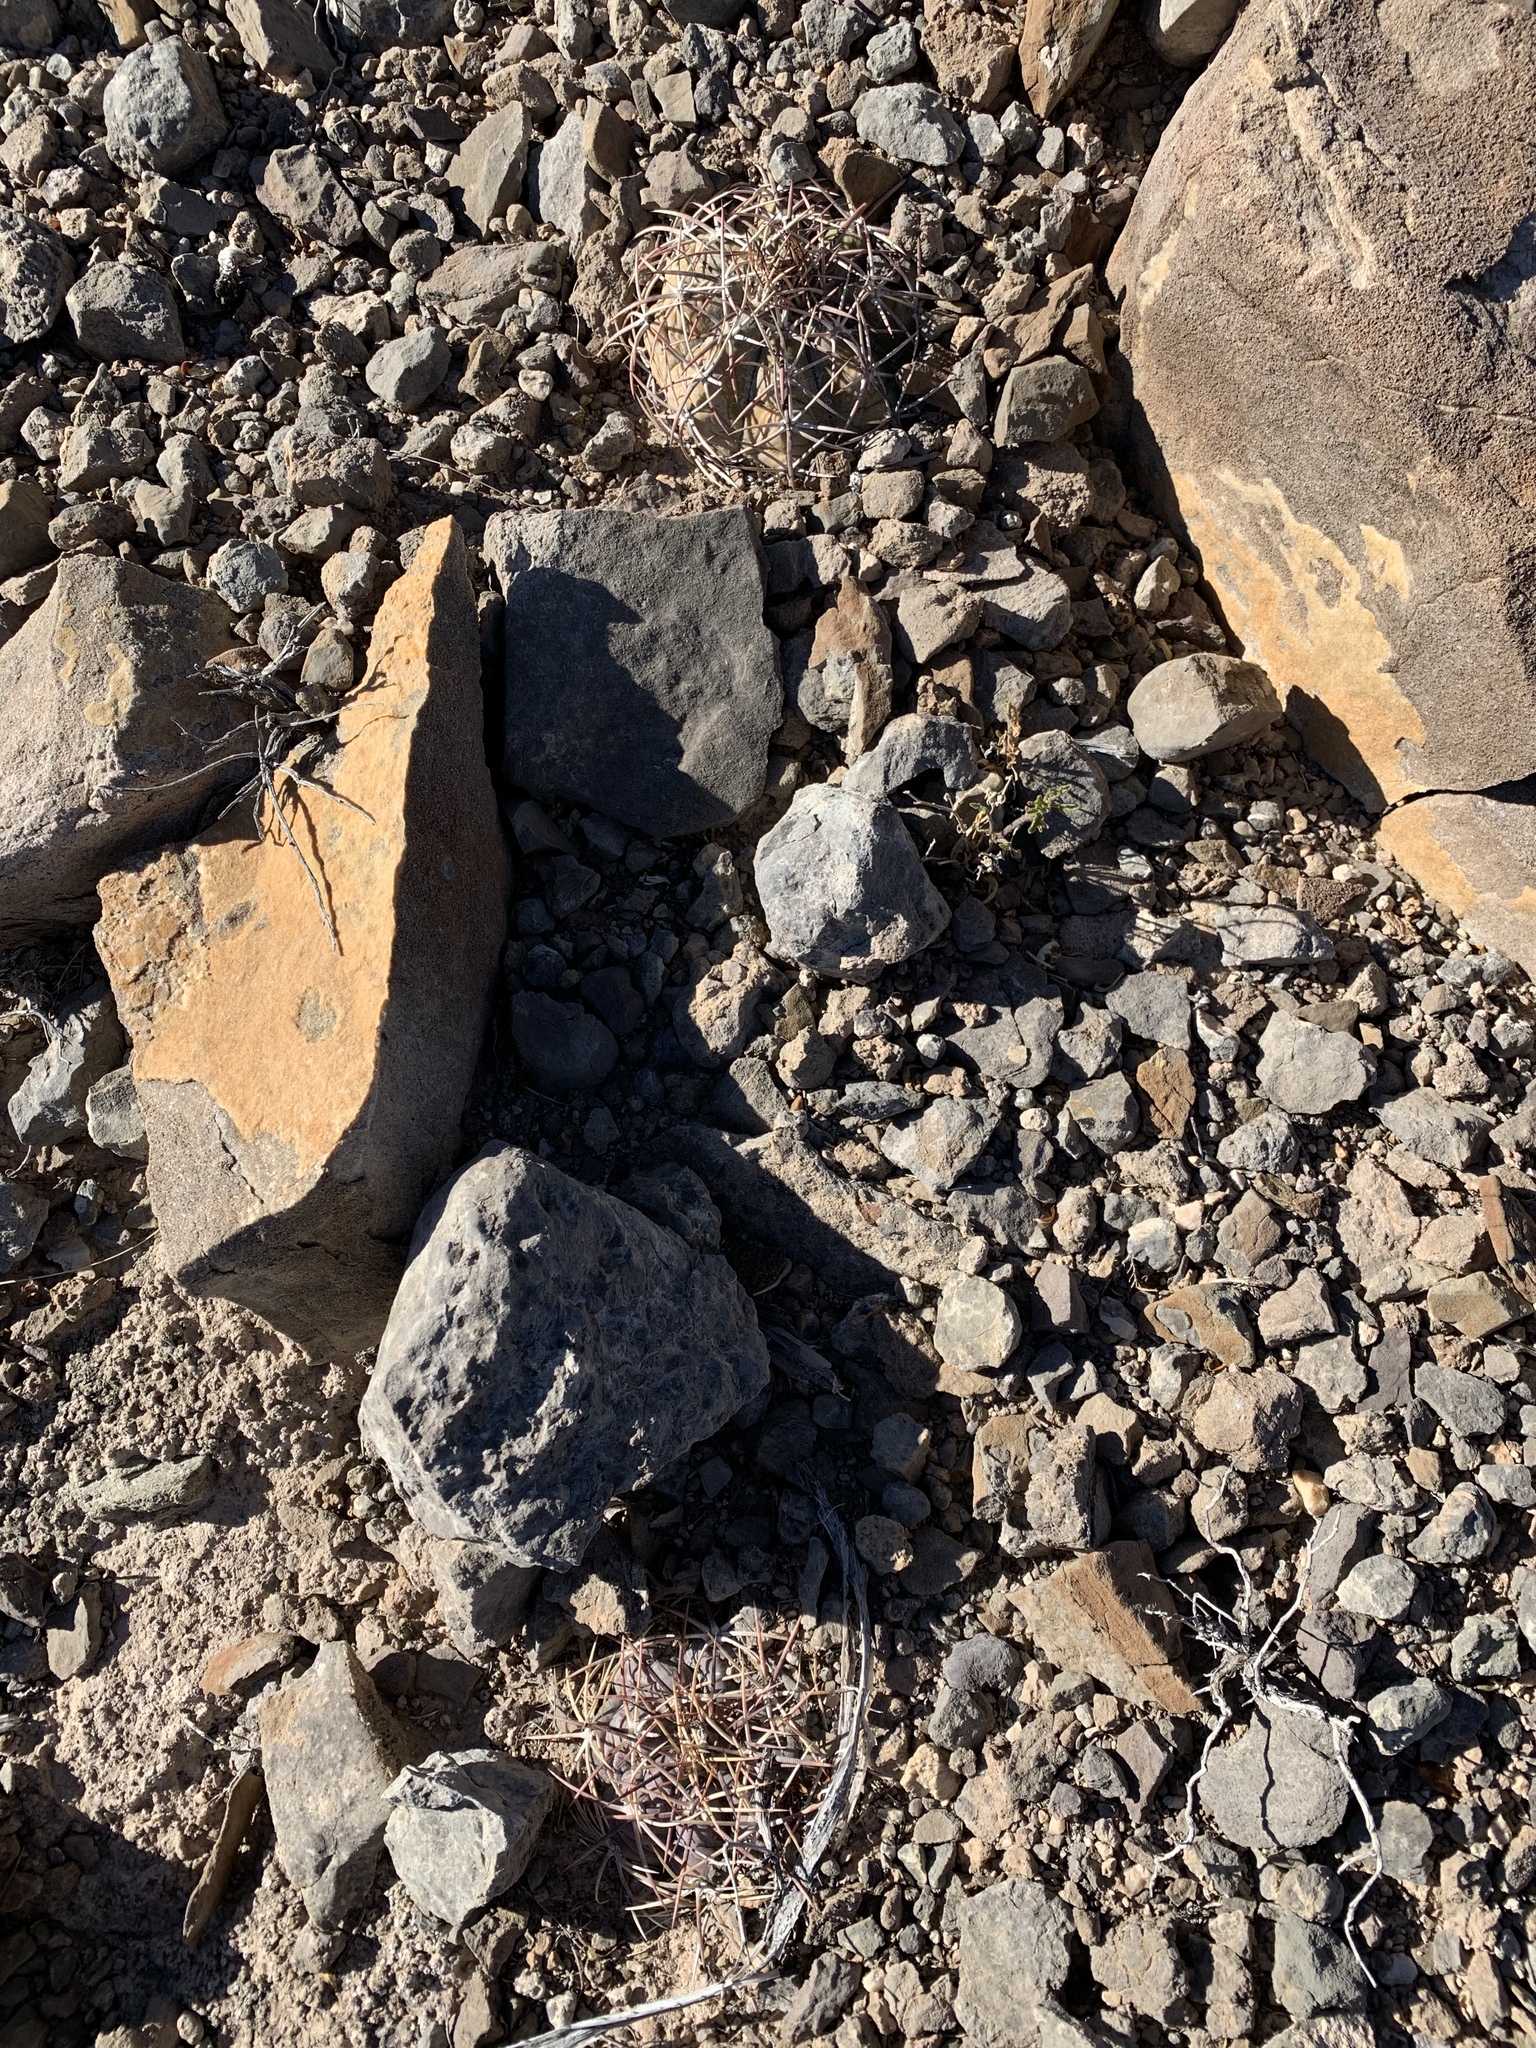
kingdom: Plantae
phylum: Tracheophyta
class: Magnoliopsida
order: Caryophyllales
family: Cactaceae
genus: Echinocactus
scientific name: Echinocactus horizonthalonius
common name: Devilshead
